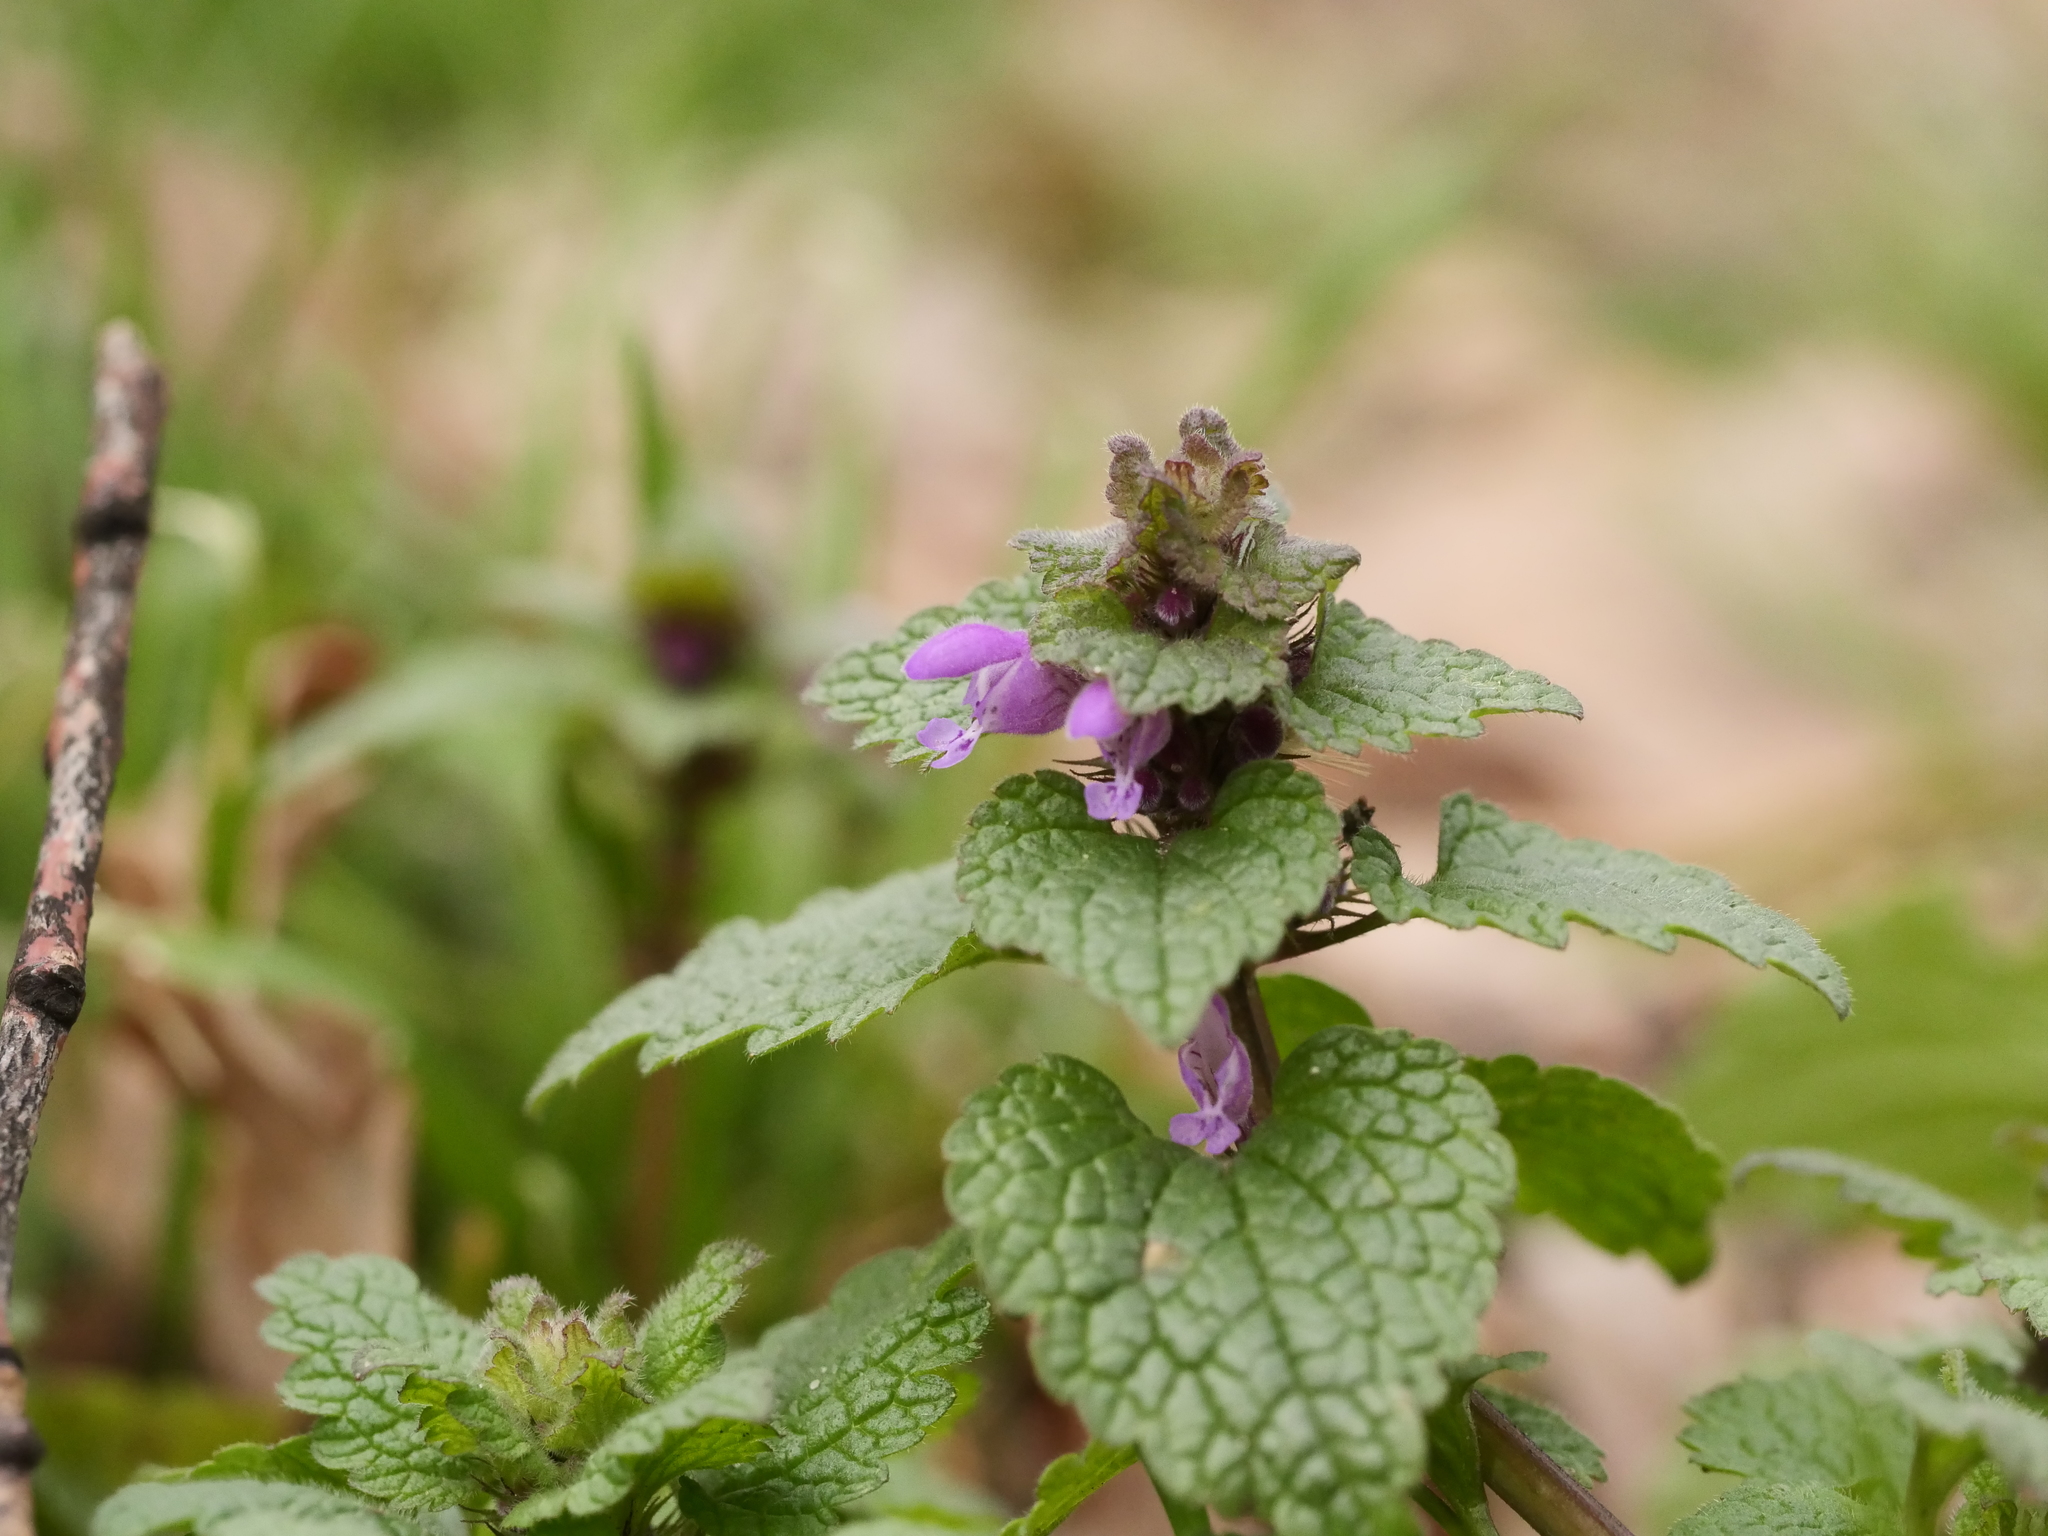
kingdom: Plantae
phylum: Tracheophyta
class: Magnoliopsida
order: Lamiales
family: Lamiaceae
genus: Lamium
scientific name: Lamium purpureum
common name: Red dead-nettle
